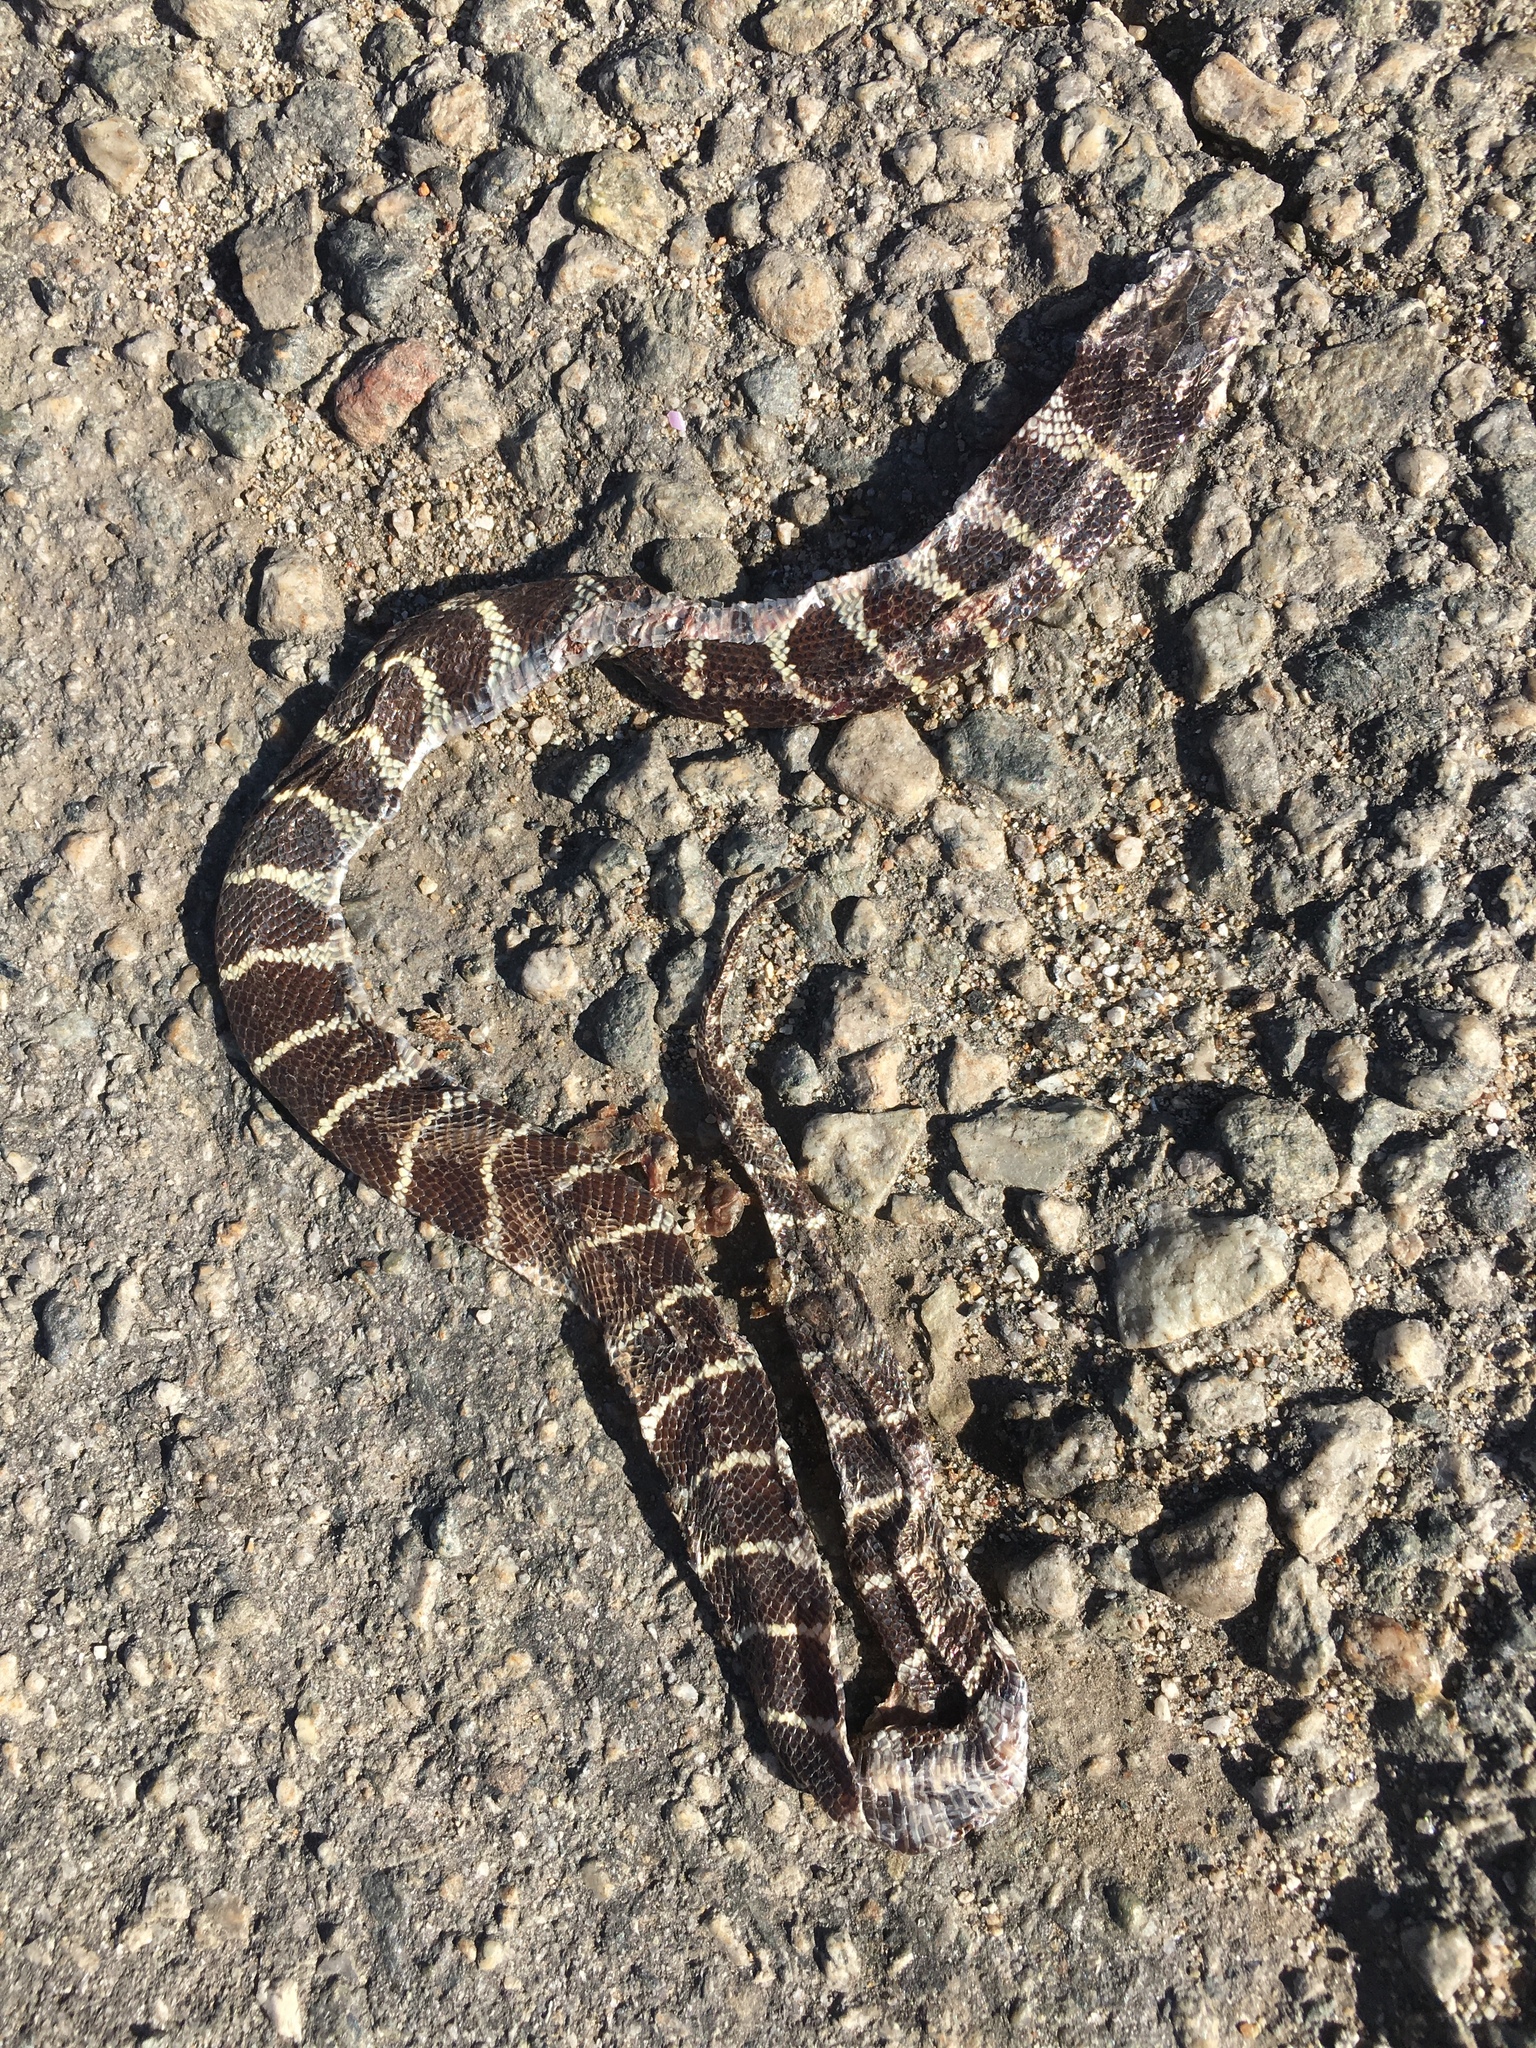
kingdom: Animalia
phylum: Chordata
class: Squamata
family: Colubridae
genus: Lampropeltis
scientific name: Lampropeltis californiae
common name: California kingsnake
